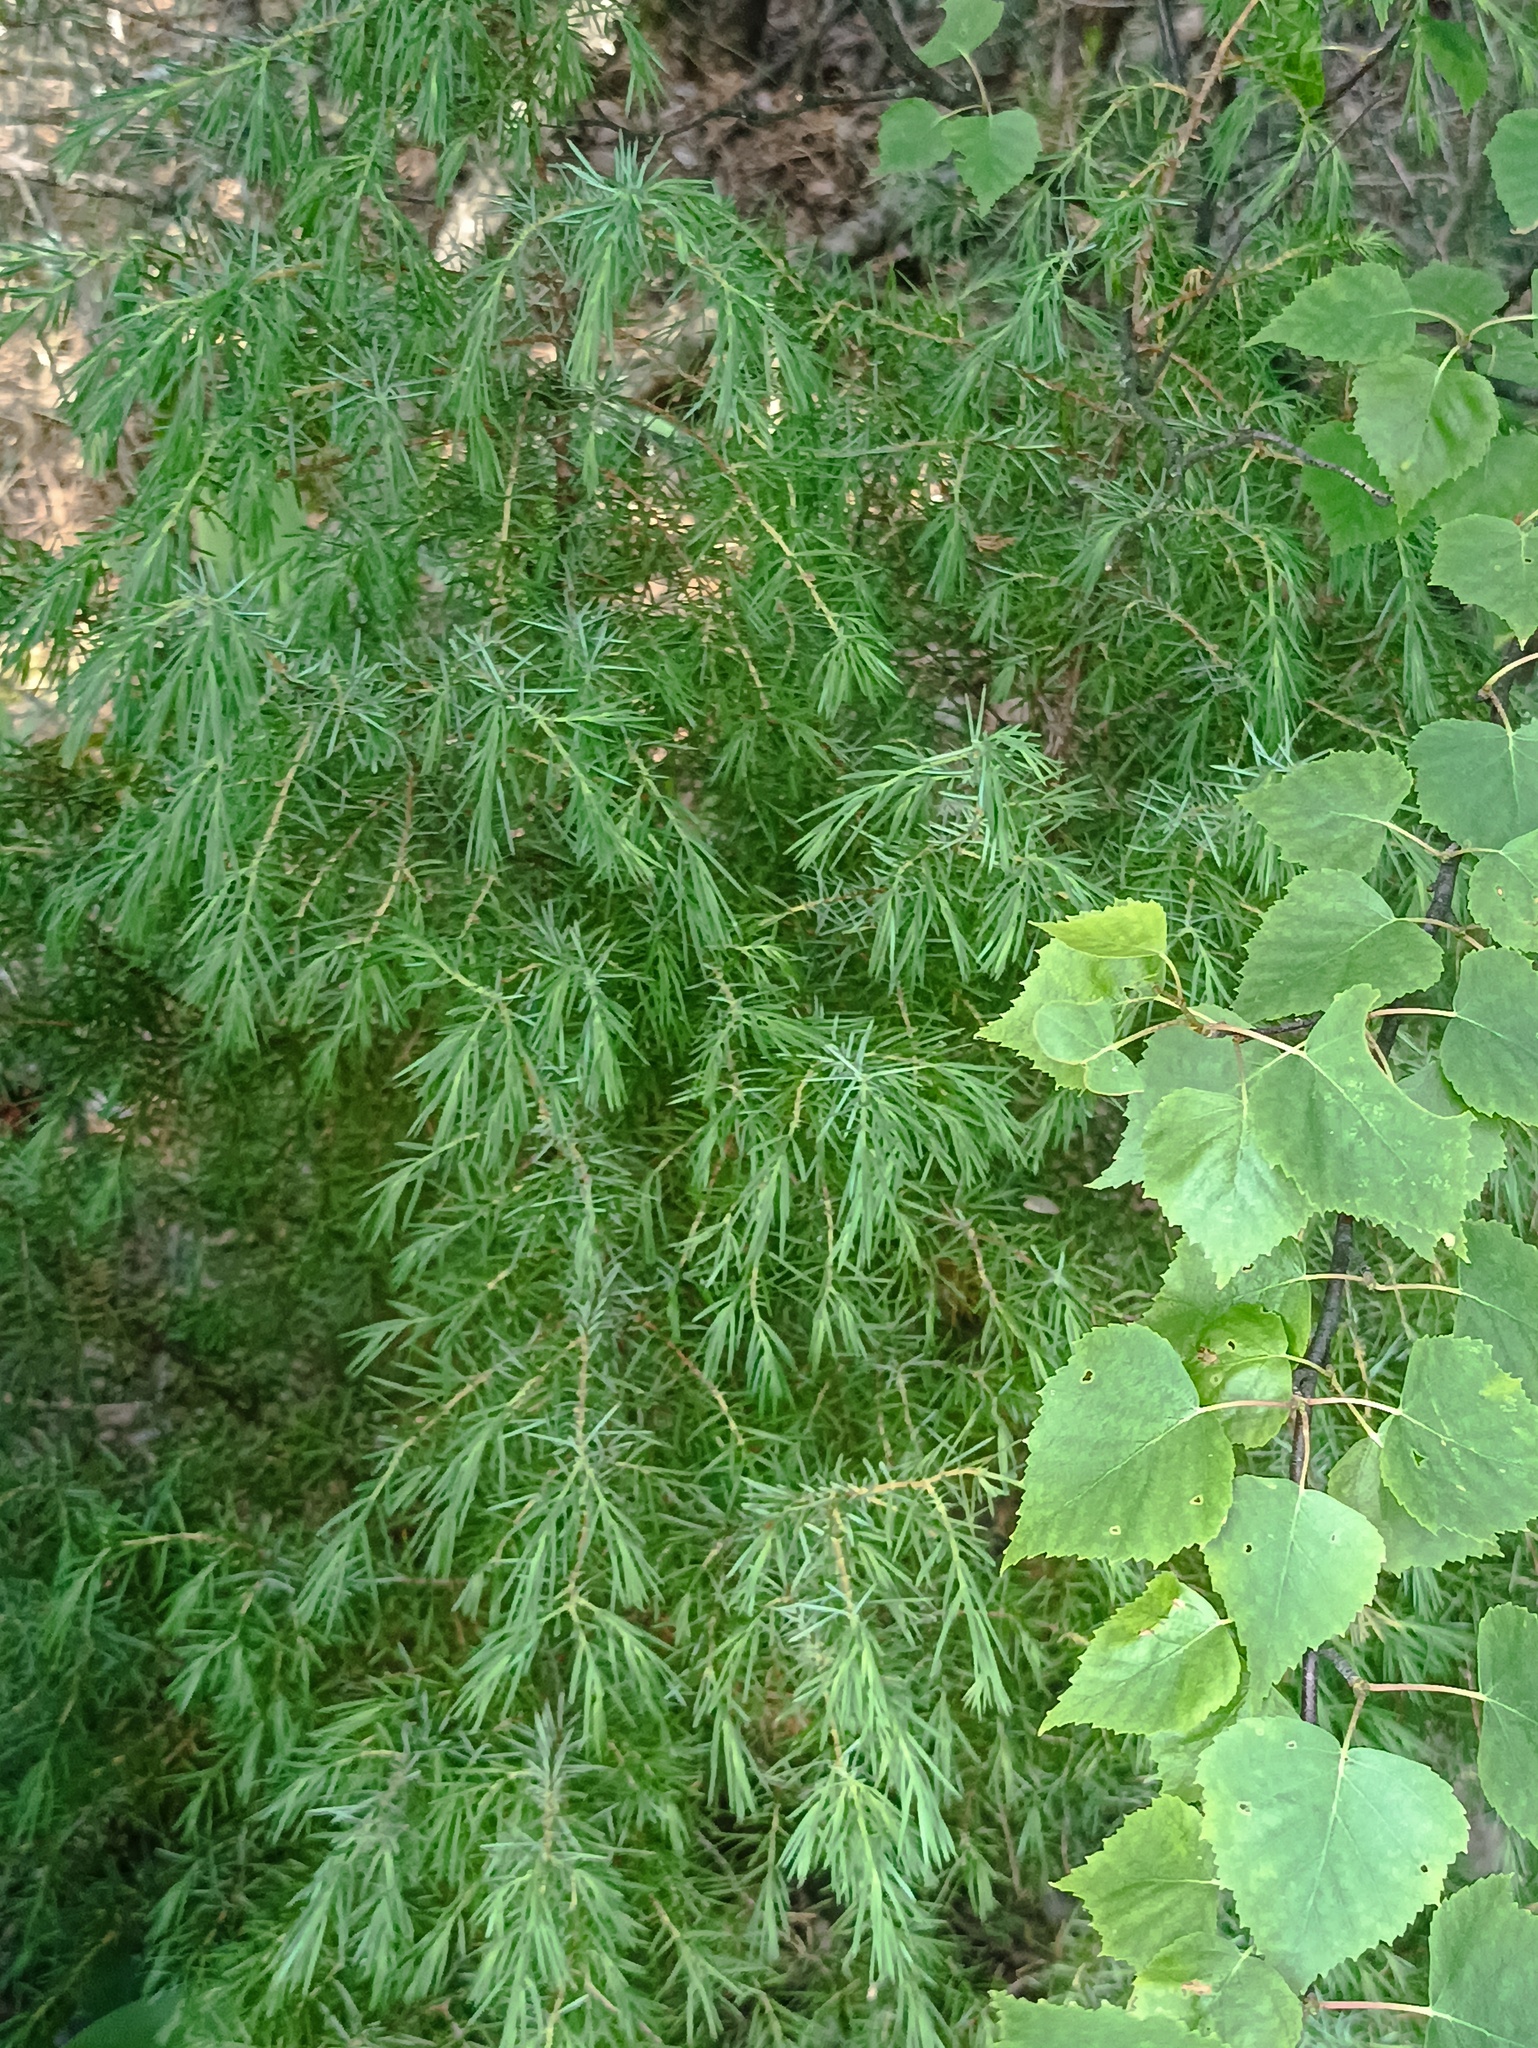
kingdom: Plantae
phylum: Tracheophyta
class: Pinopsida
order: Pinales
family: Cupressaceae
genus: Juniperus
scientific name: Juniperus communis
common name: Common juniper
